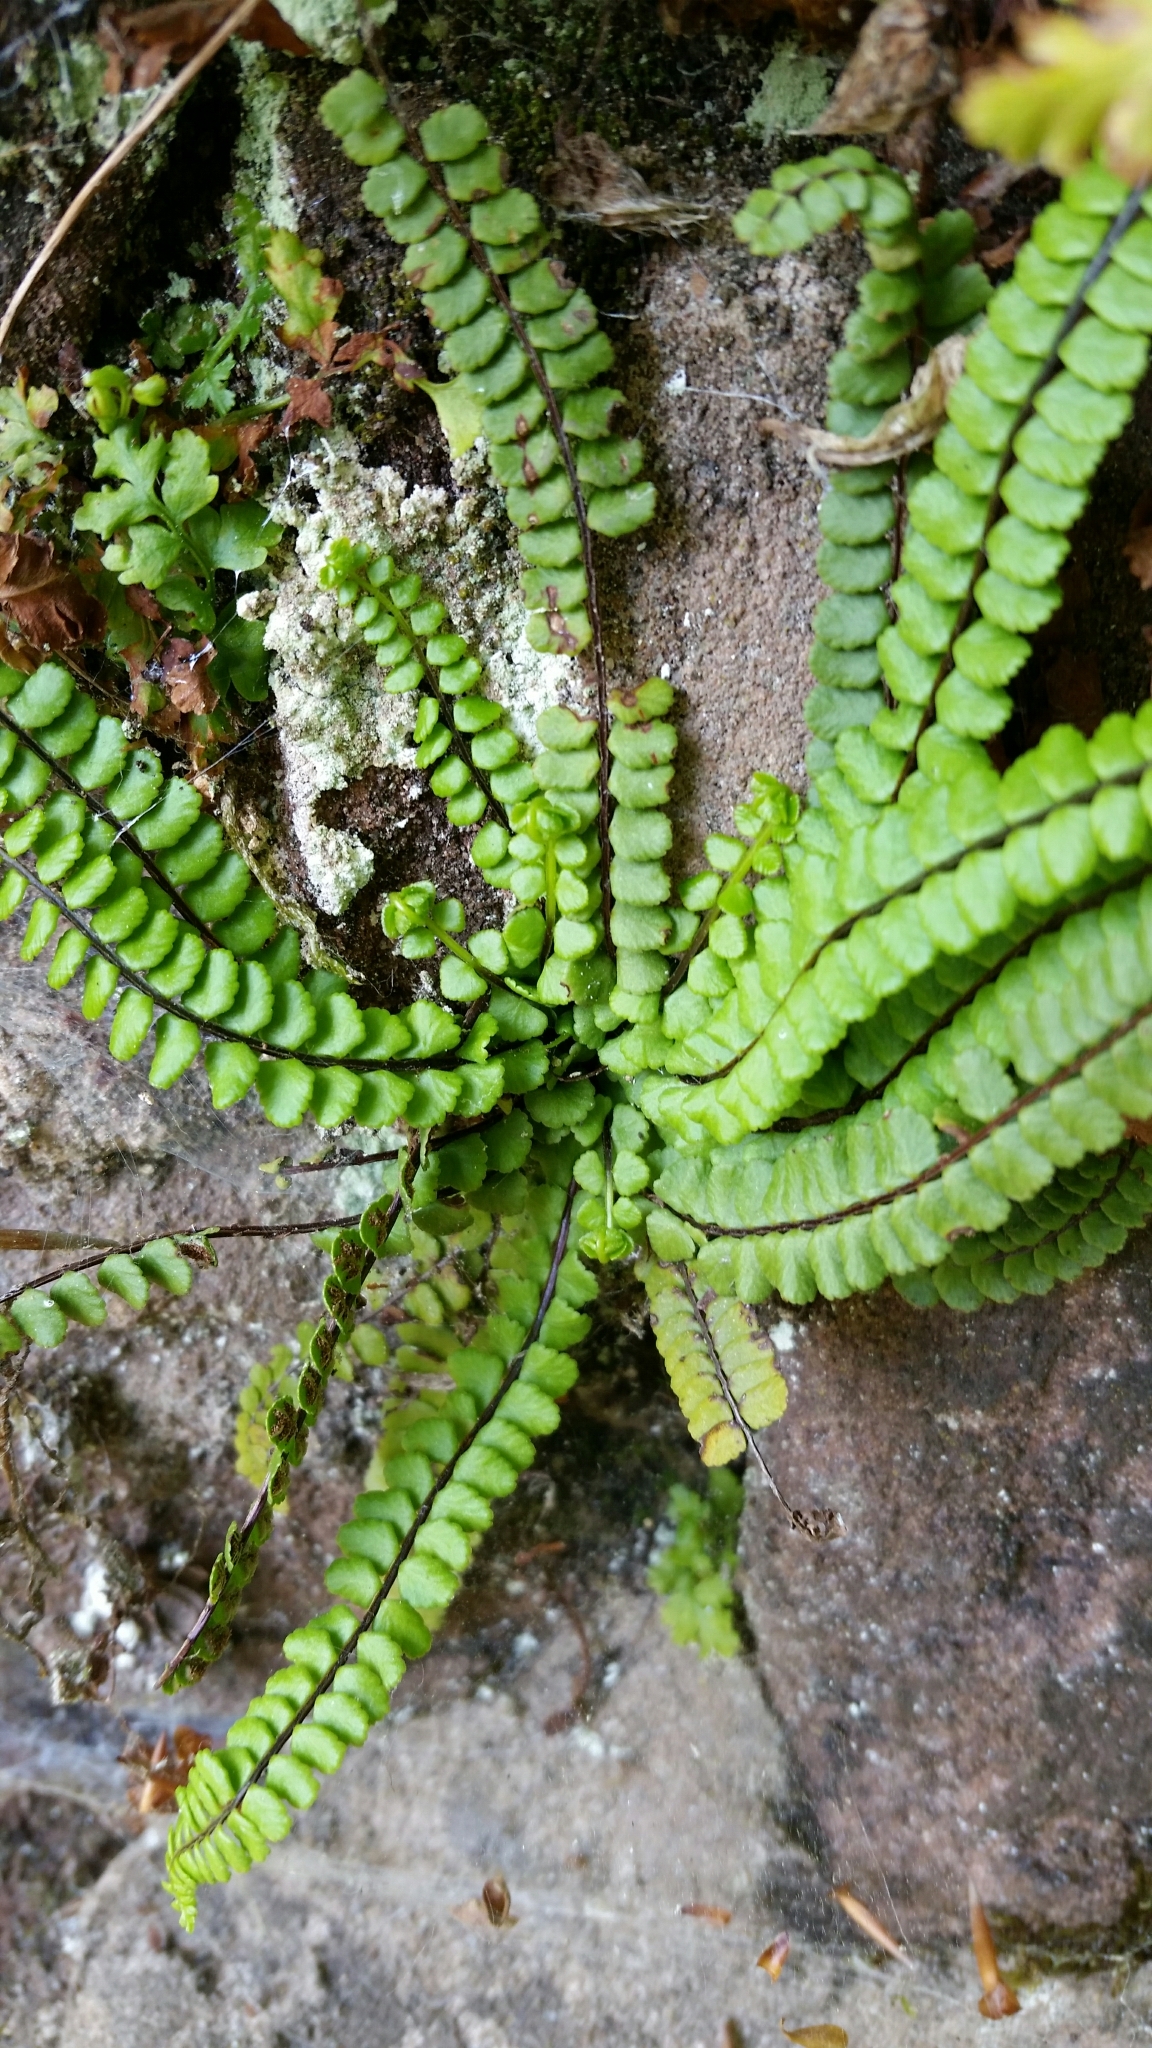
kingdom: Plantae
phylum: Tracheophyta
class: Polypodiopsida
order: Polypodiales
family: Aspleniaceae
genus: Asplenium
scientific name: Asplenium trichomanes
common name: Maidenhair spleenwort
